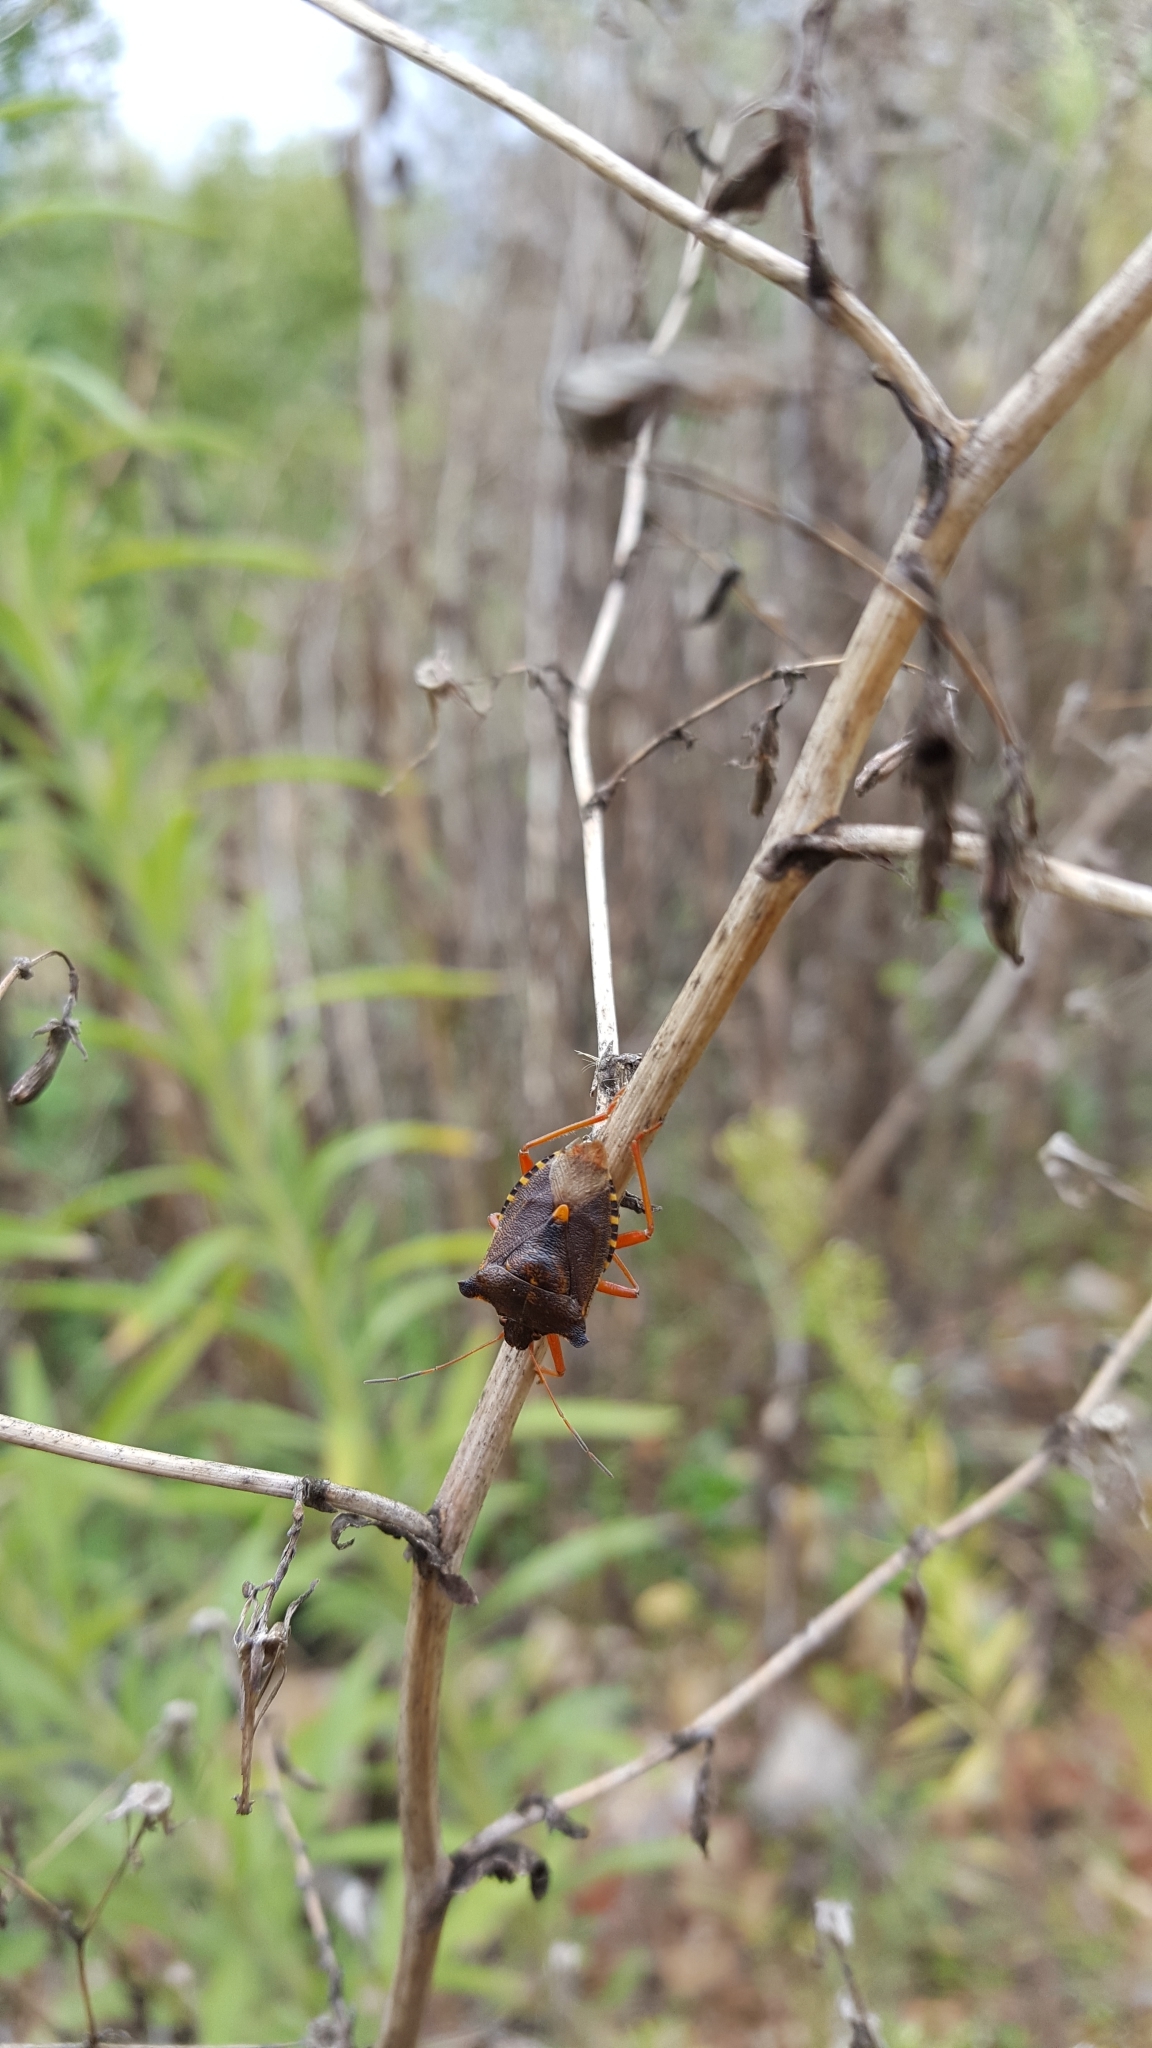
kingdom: Animalia
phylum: Arthropoda
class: Insecta
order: Hemiptera
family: Pentatomidae
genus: Pentatoma
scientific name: Pentatoma rufipes
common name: Forest bug
